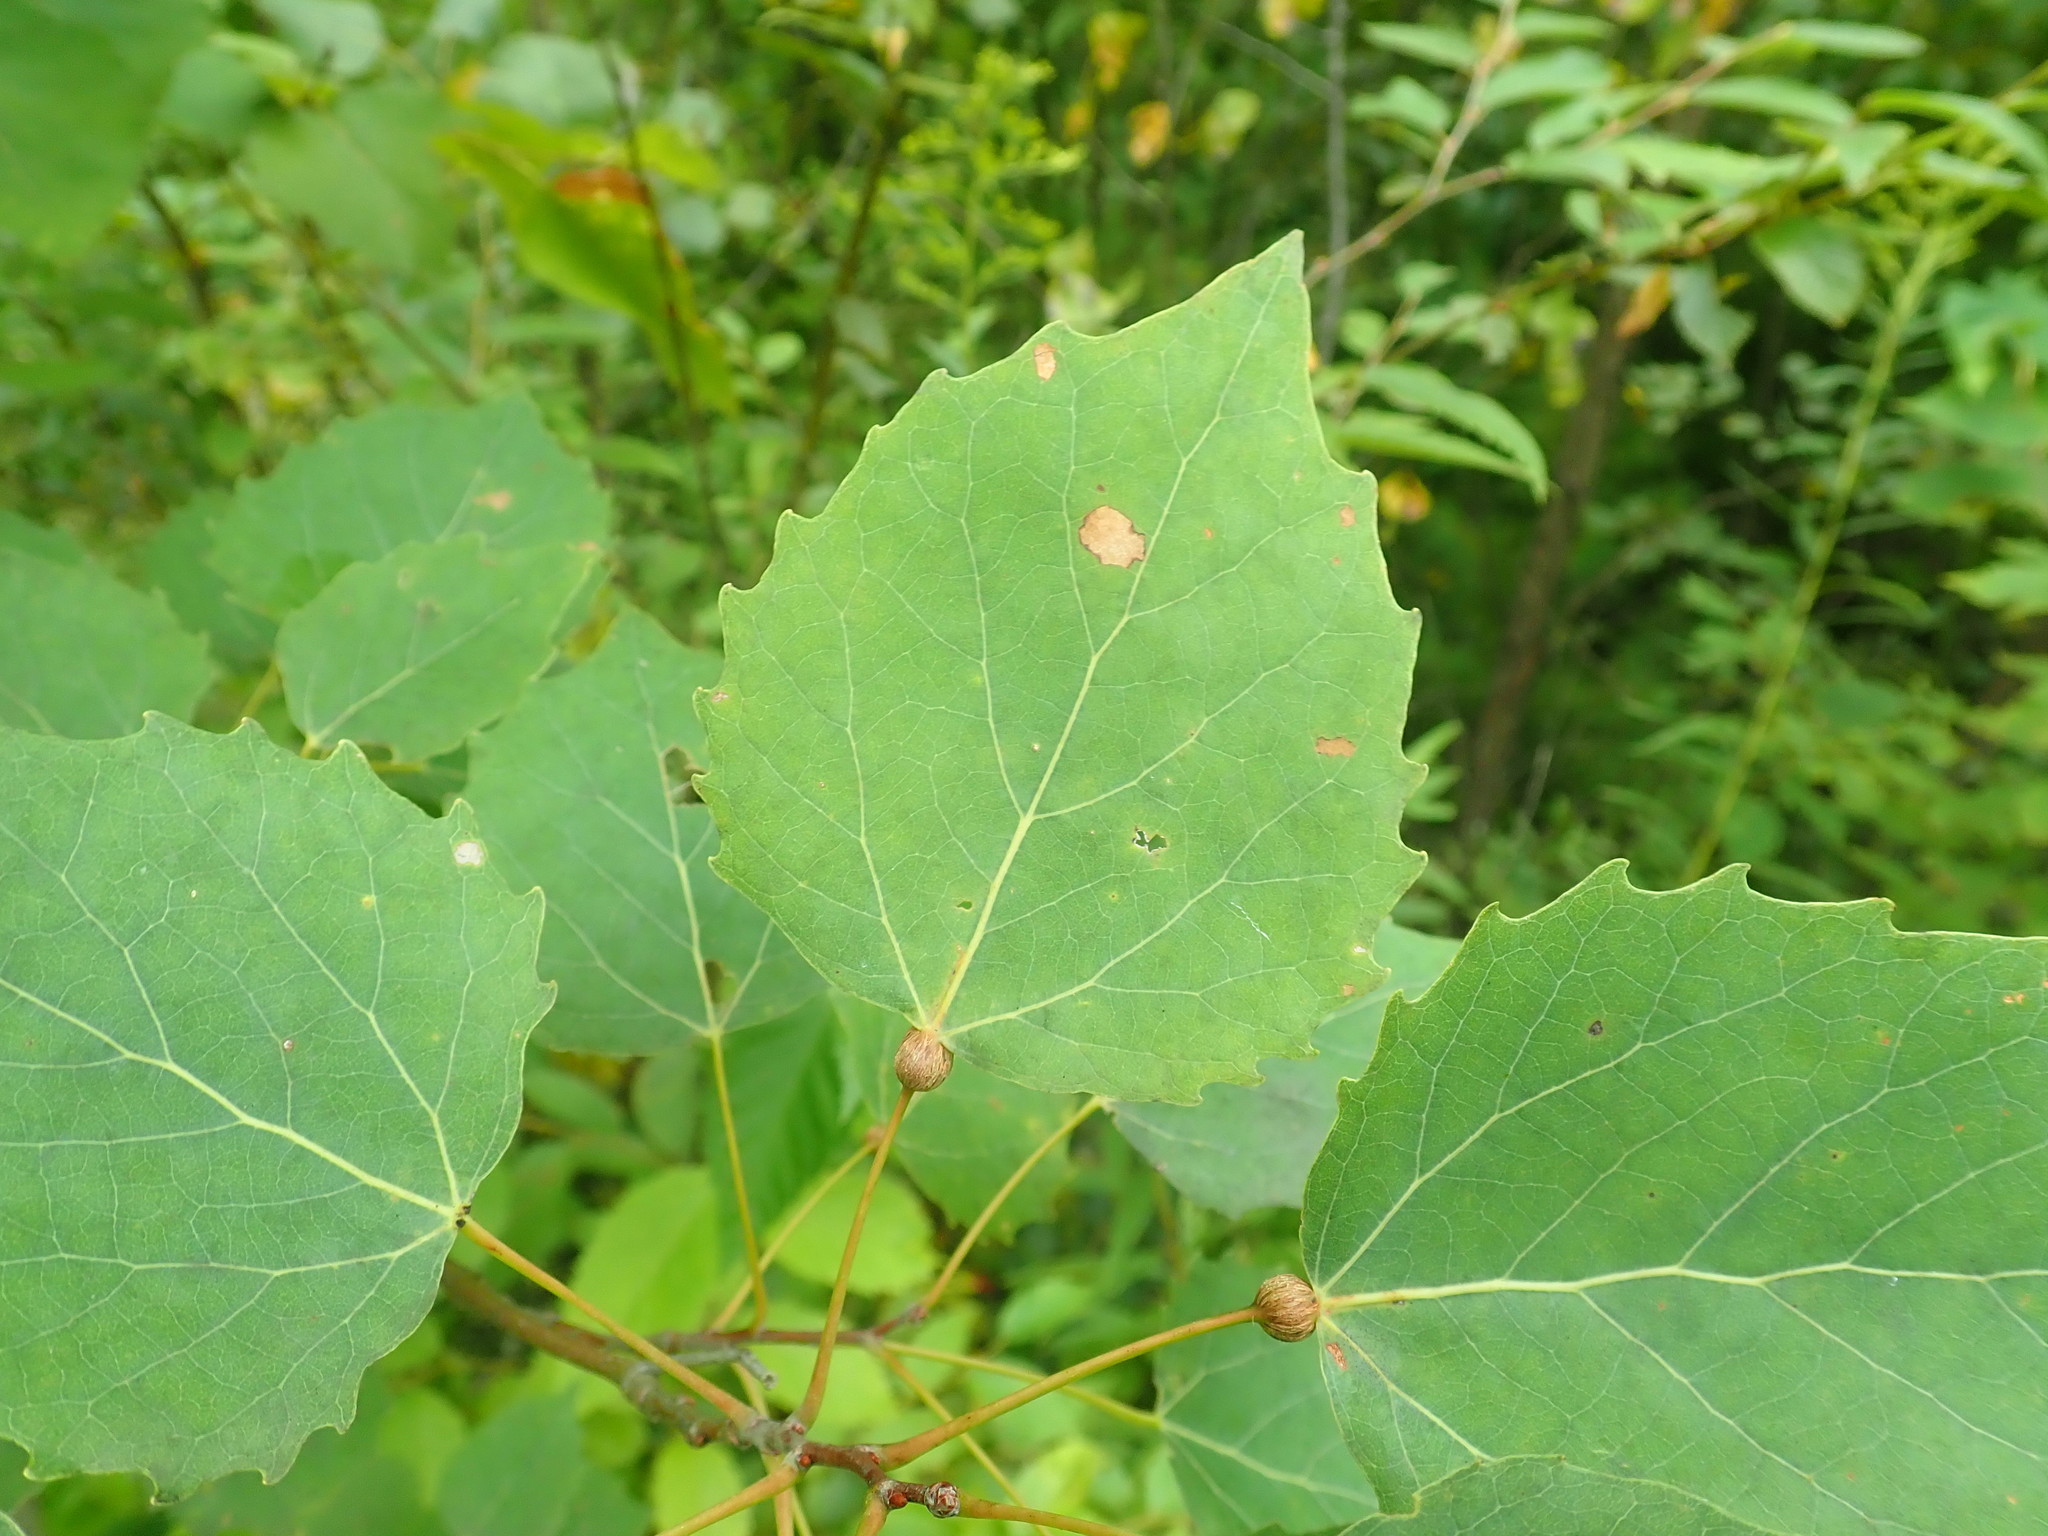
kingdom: Plantae
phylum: Tracheophyta
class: Magnoliopsida
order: Malpighiales
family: Salicaceae
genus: Populus
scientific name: Populus grandidentata
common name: Bigtooth aspen
